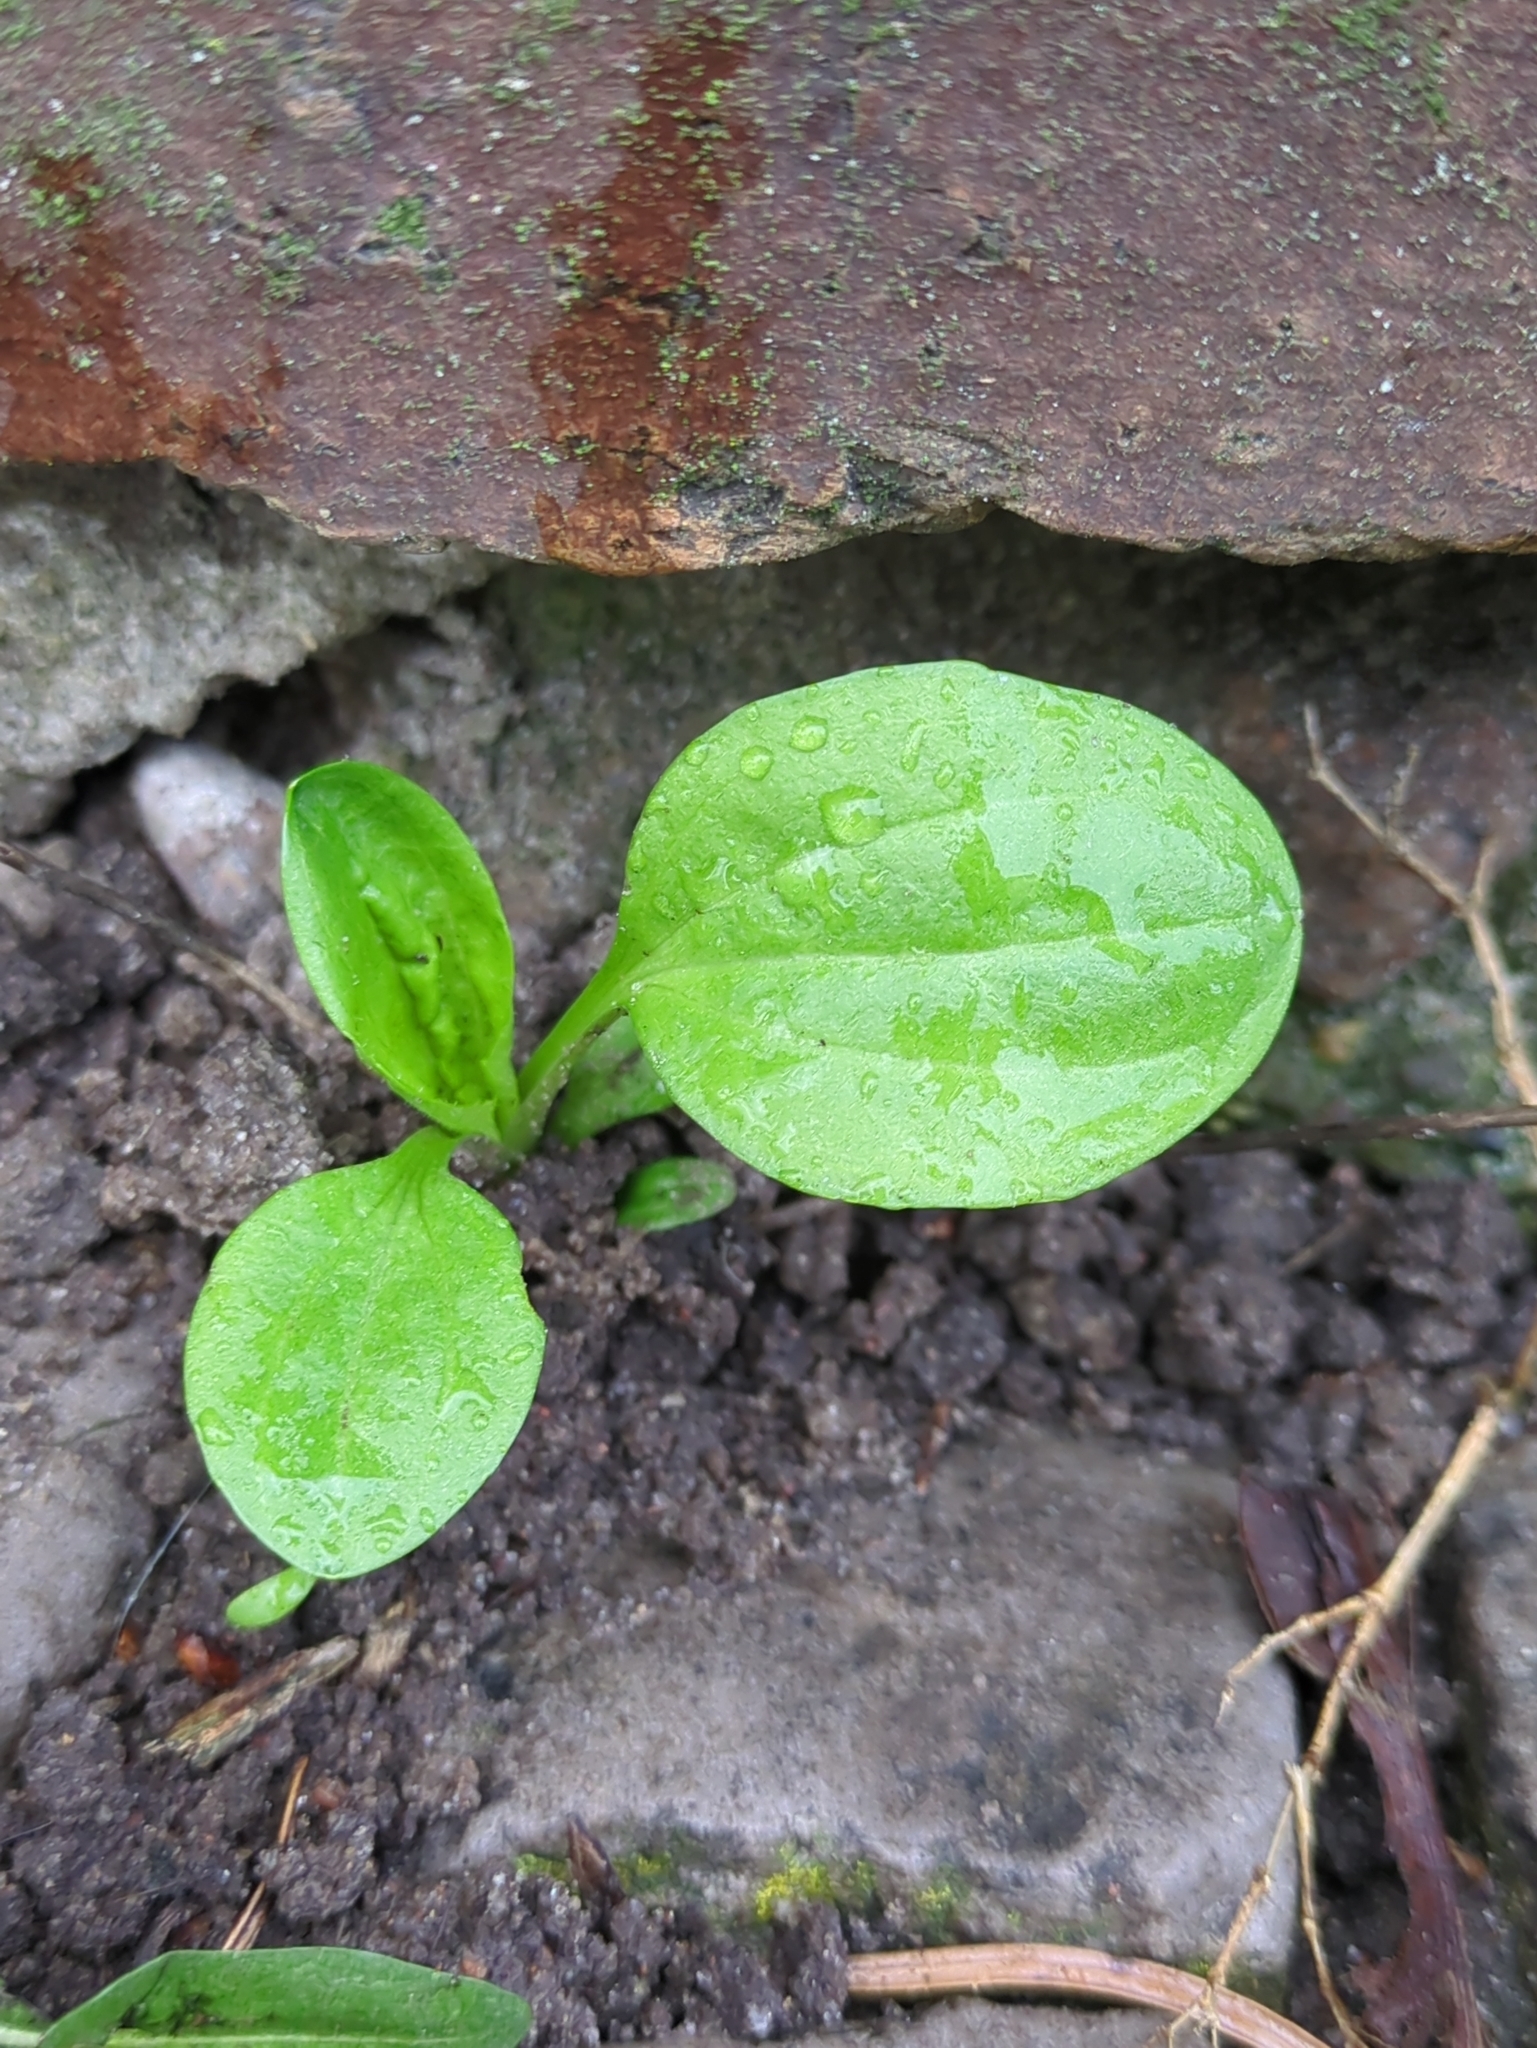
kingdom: Plantae
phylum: Tracheophyta
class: Magnoliopsida
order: Lamiales
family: Plantaginaceae
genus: Plantago
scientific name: Plantago major
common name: Common plantain
